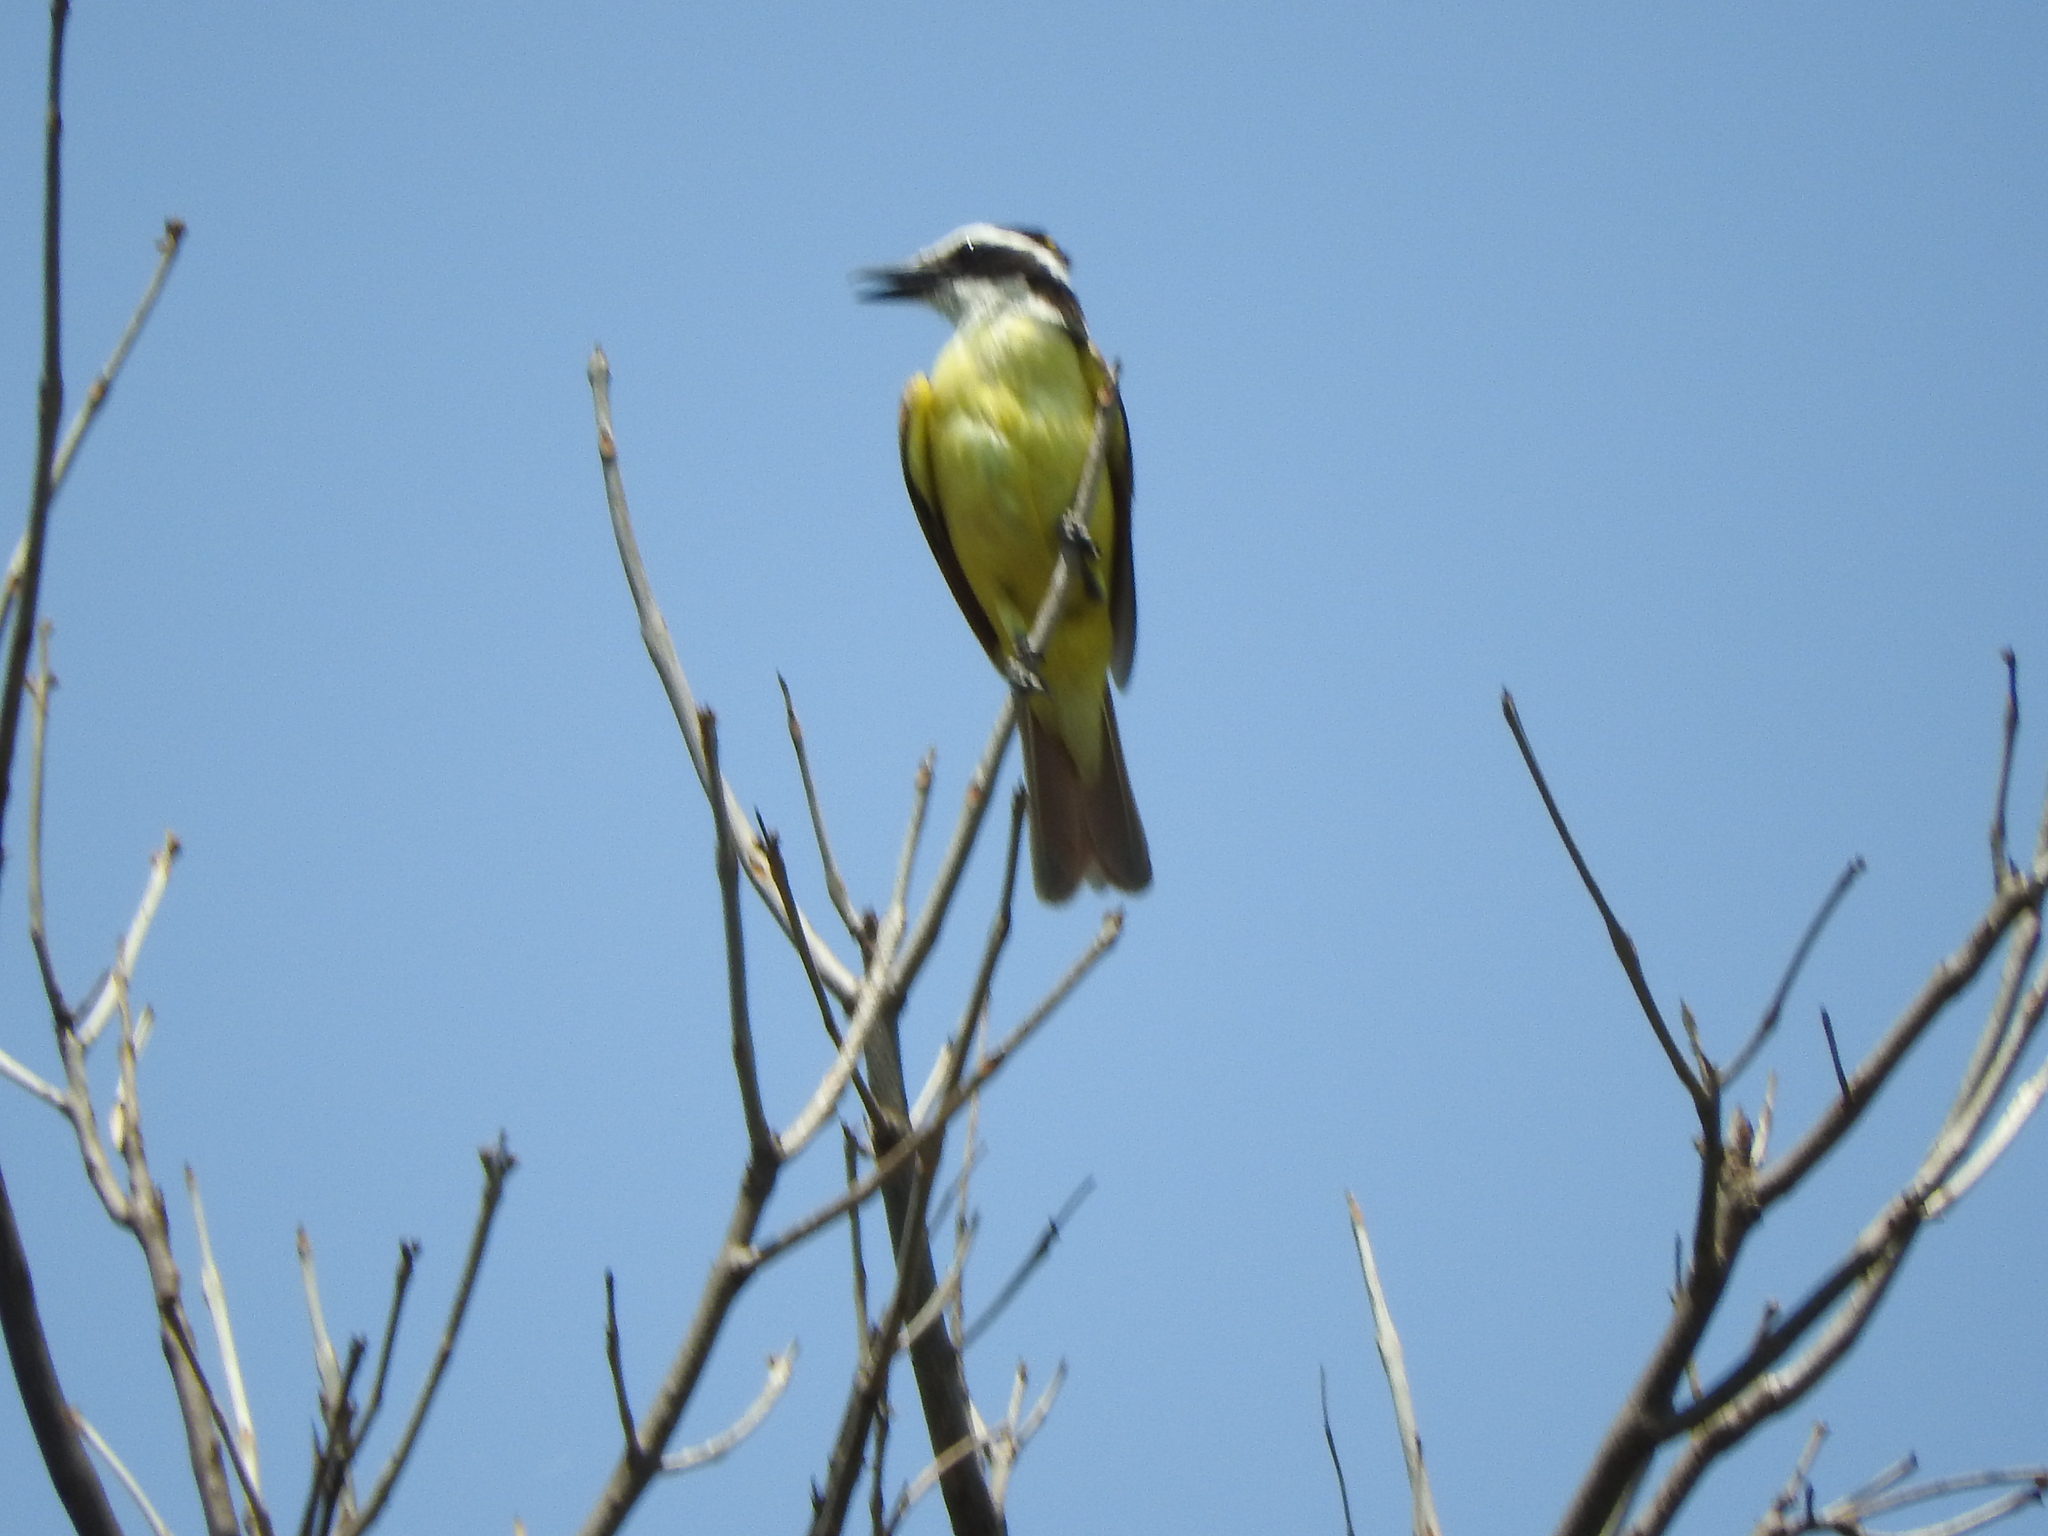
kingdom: Animalia
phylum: Chordata
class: Aves
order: Passeriformes
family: Tyrannidae
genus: Pitangus
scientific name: Pitangus sulphuratus
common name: Great kiskadee
